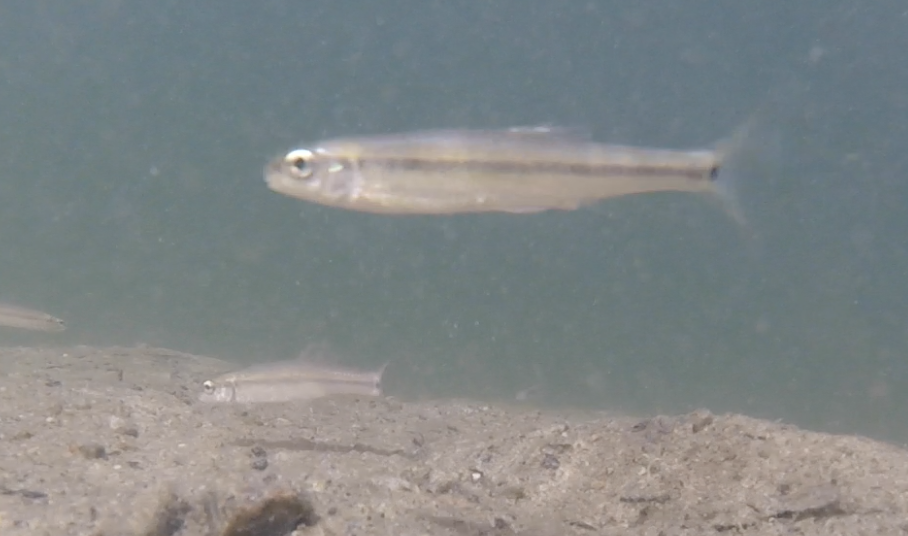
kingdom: Animalia
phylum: Chordata
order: Cypriniformes
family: Cyprinidae
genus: Pimephales
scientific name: Pimephales notatus
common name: Bluntnose minnow
